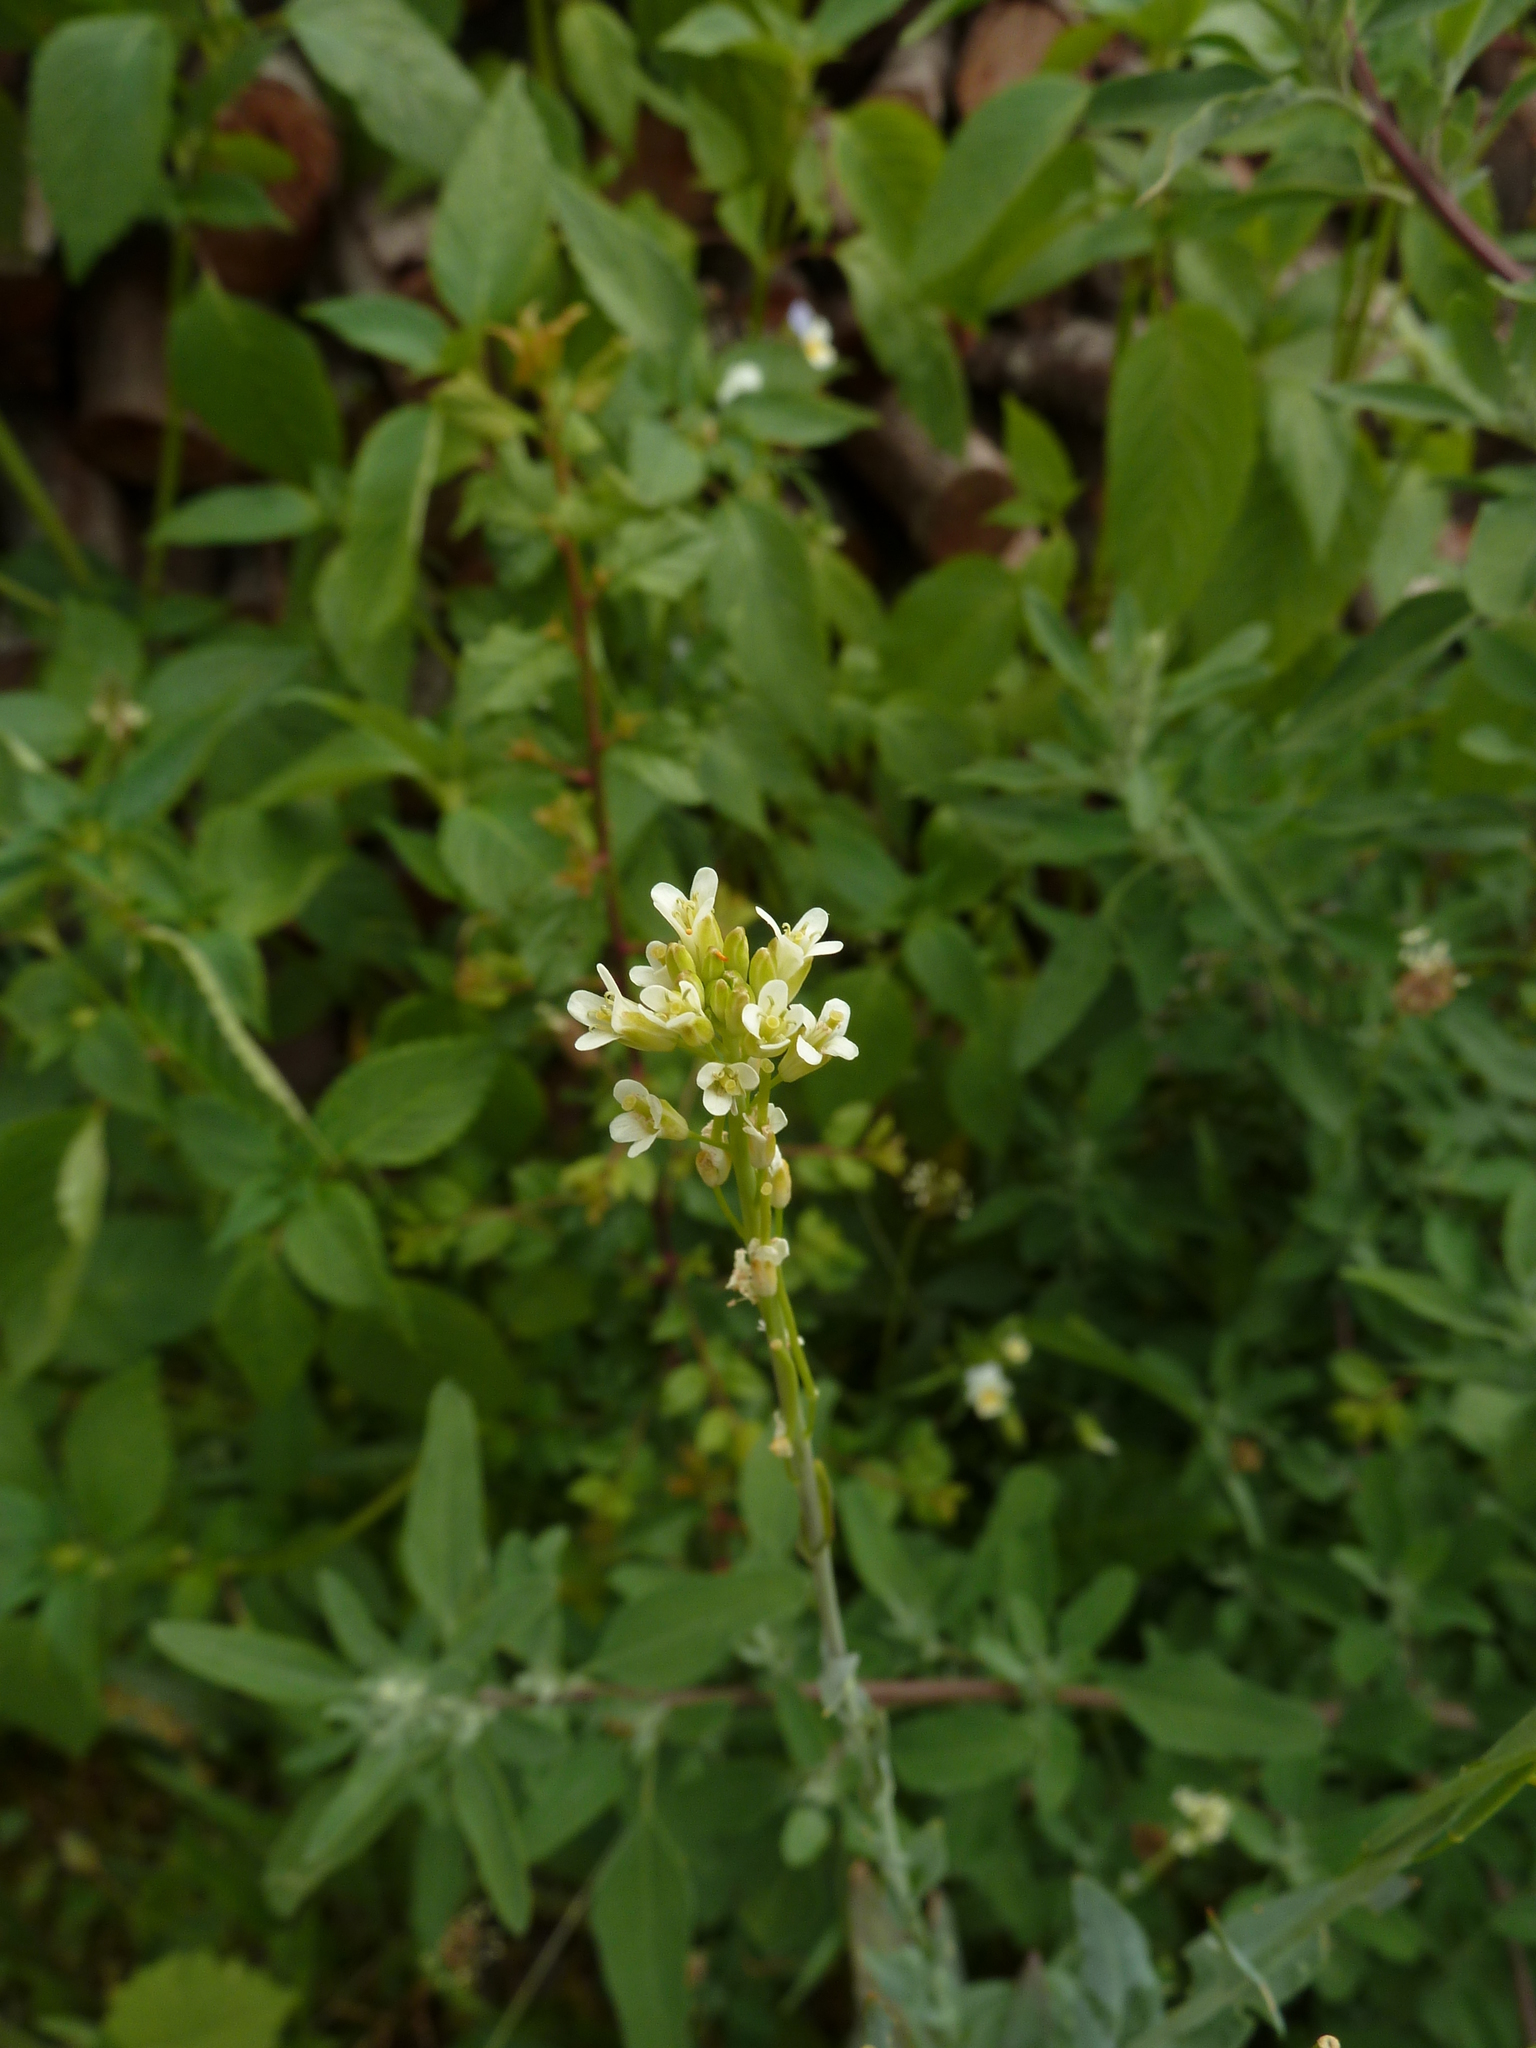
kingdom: Plantae
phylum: Tracheophyta
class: Magnoliopsida
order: Brassicales
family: Brassicaceae
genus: Turritis
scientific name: Turritis glabra
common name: Tower rockcress
